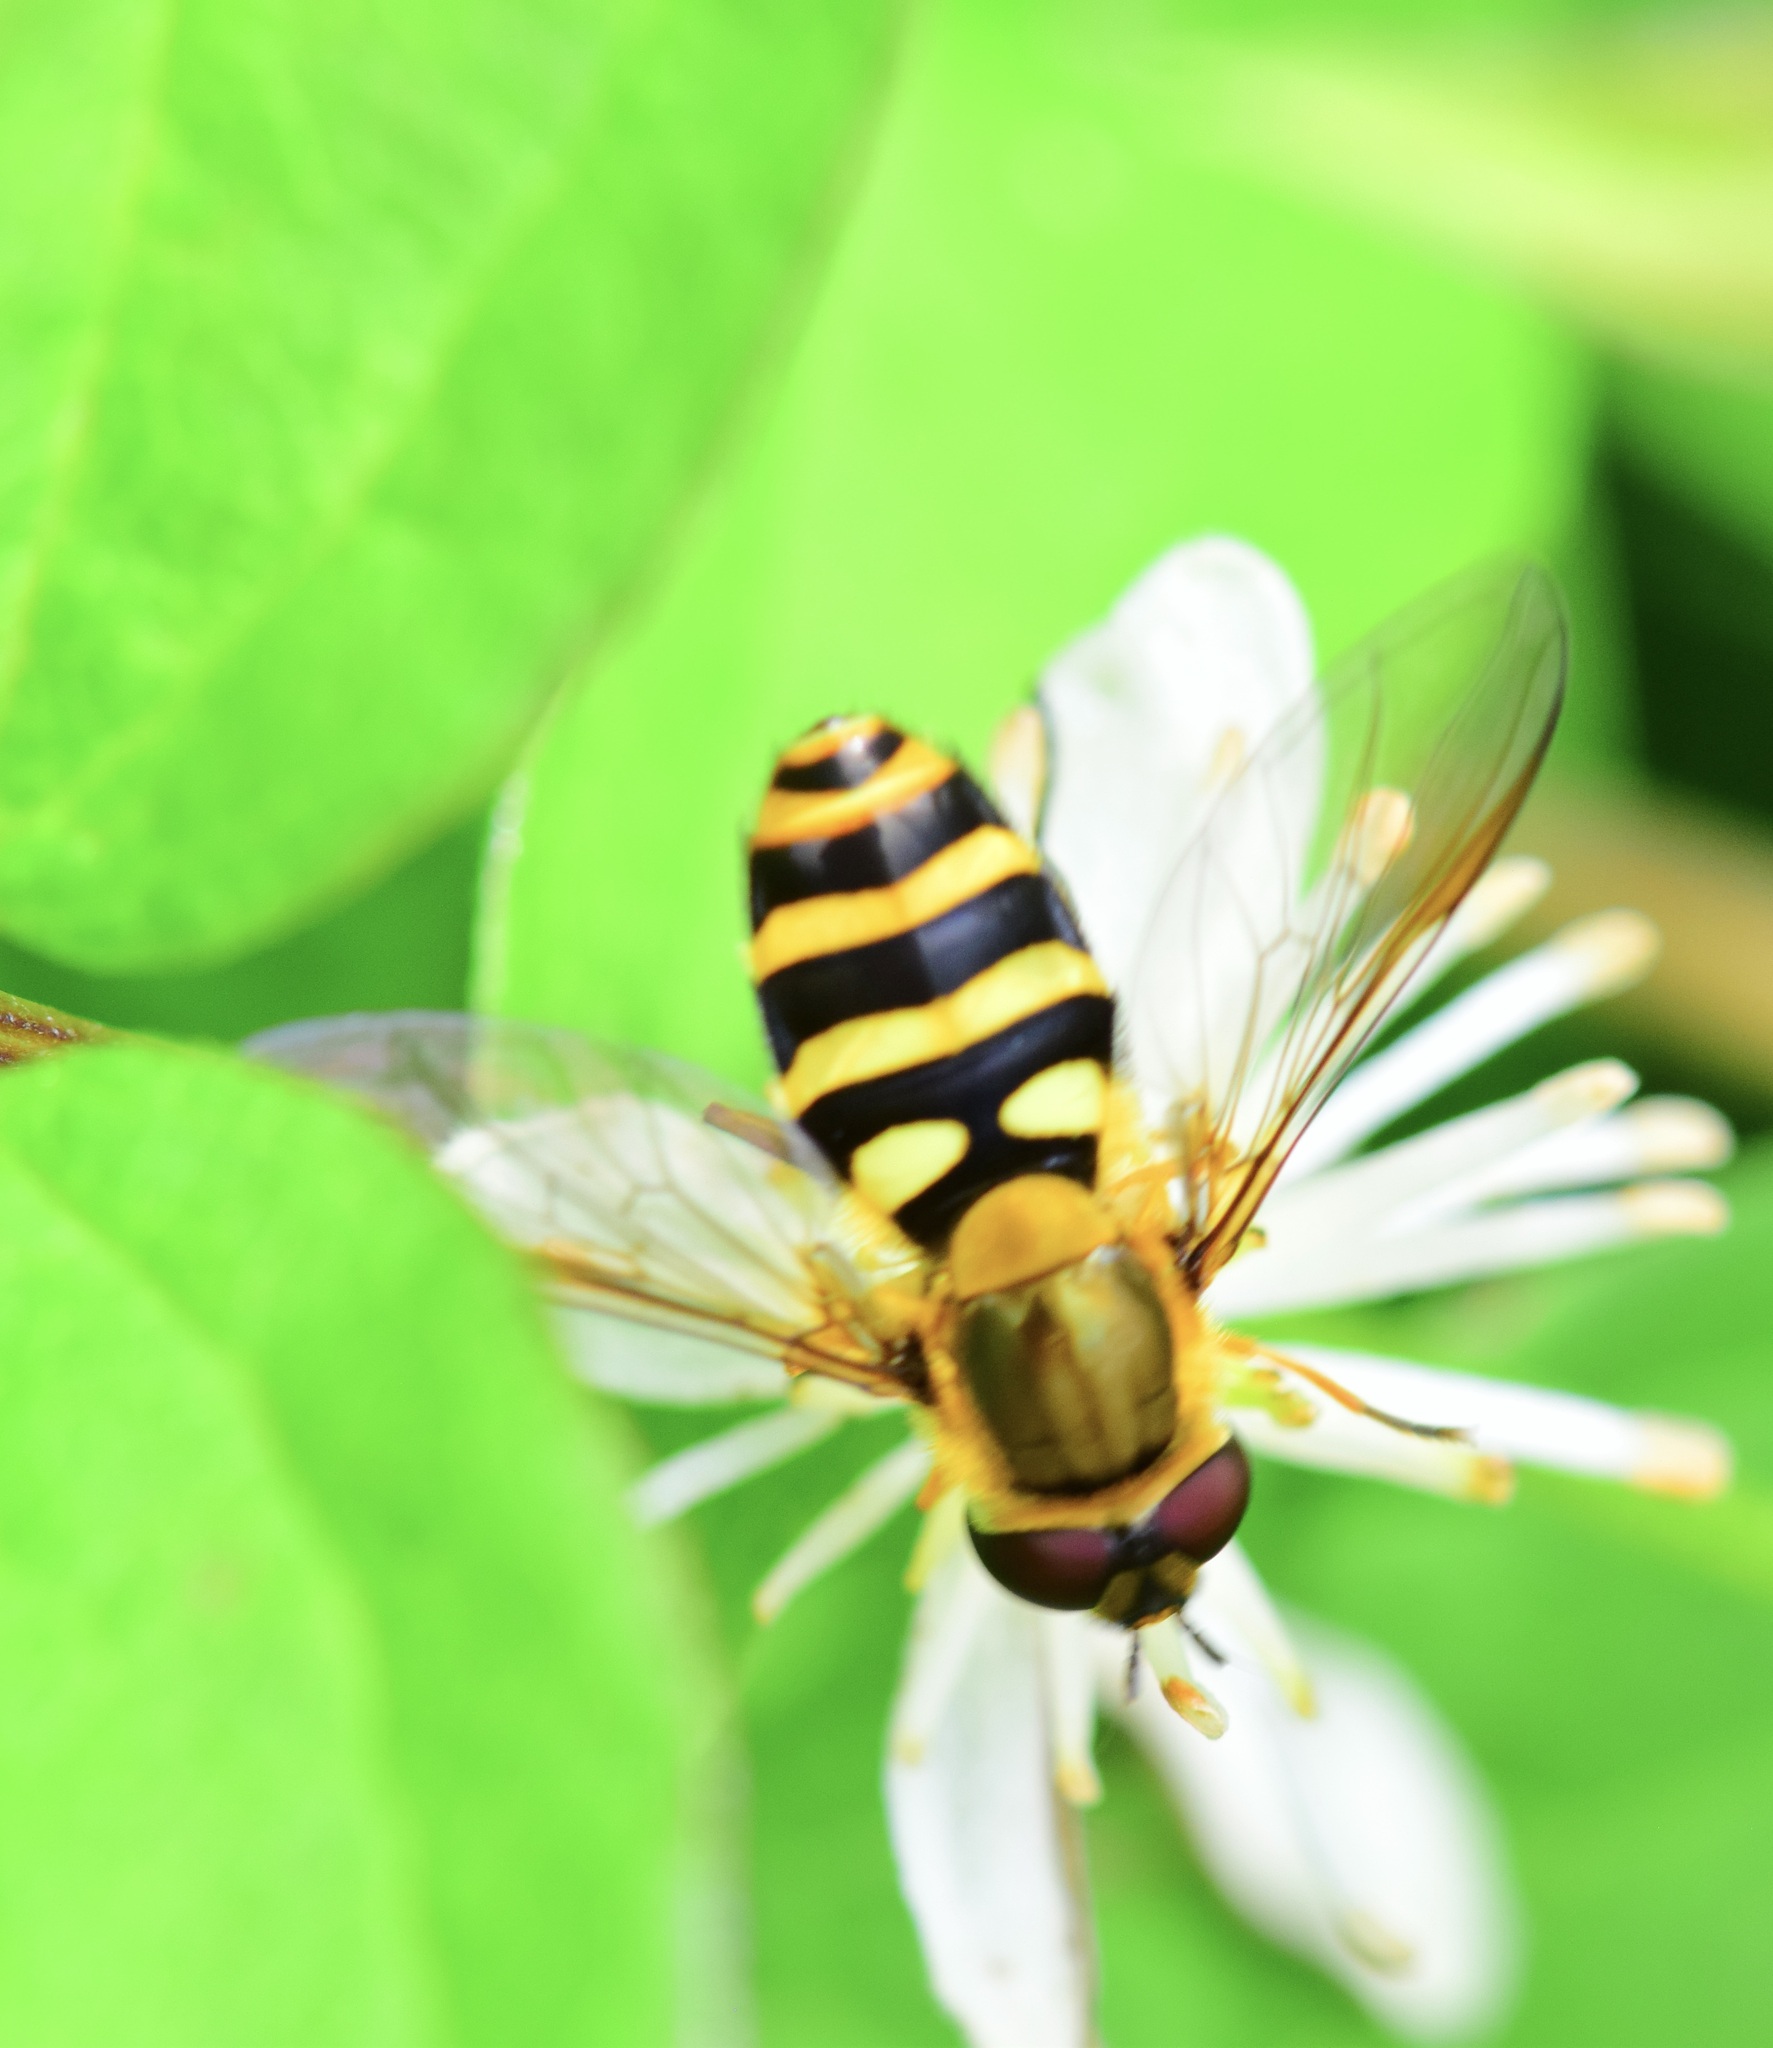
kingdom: Animalia
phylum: Arthropoda
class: Insecta
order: Diptera
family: Syrphidae
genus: Syrphus
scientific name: Syrphus
